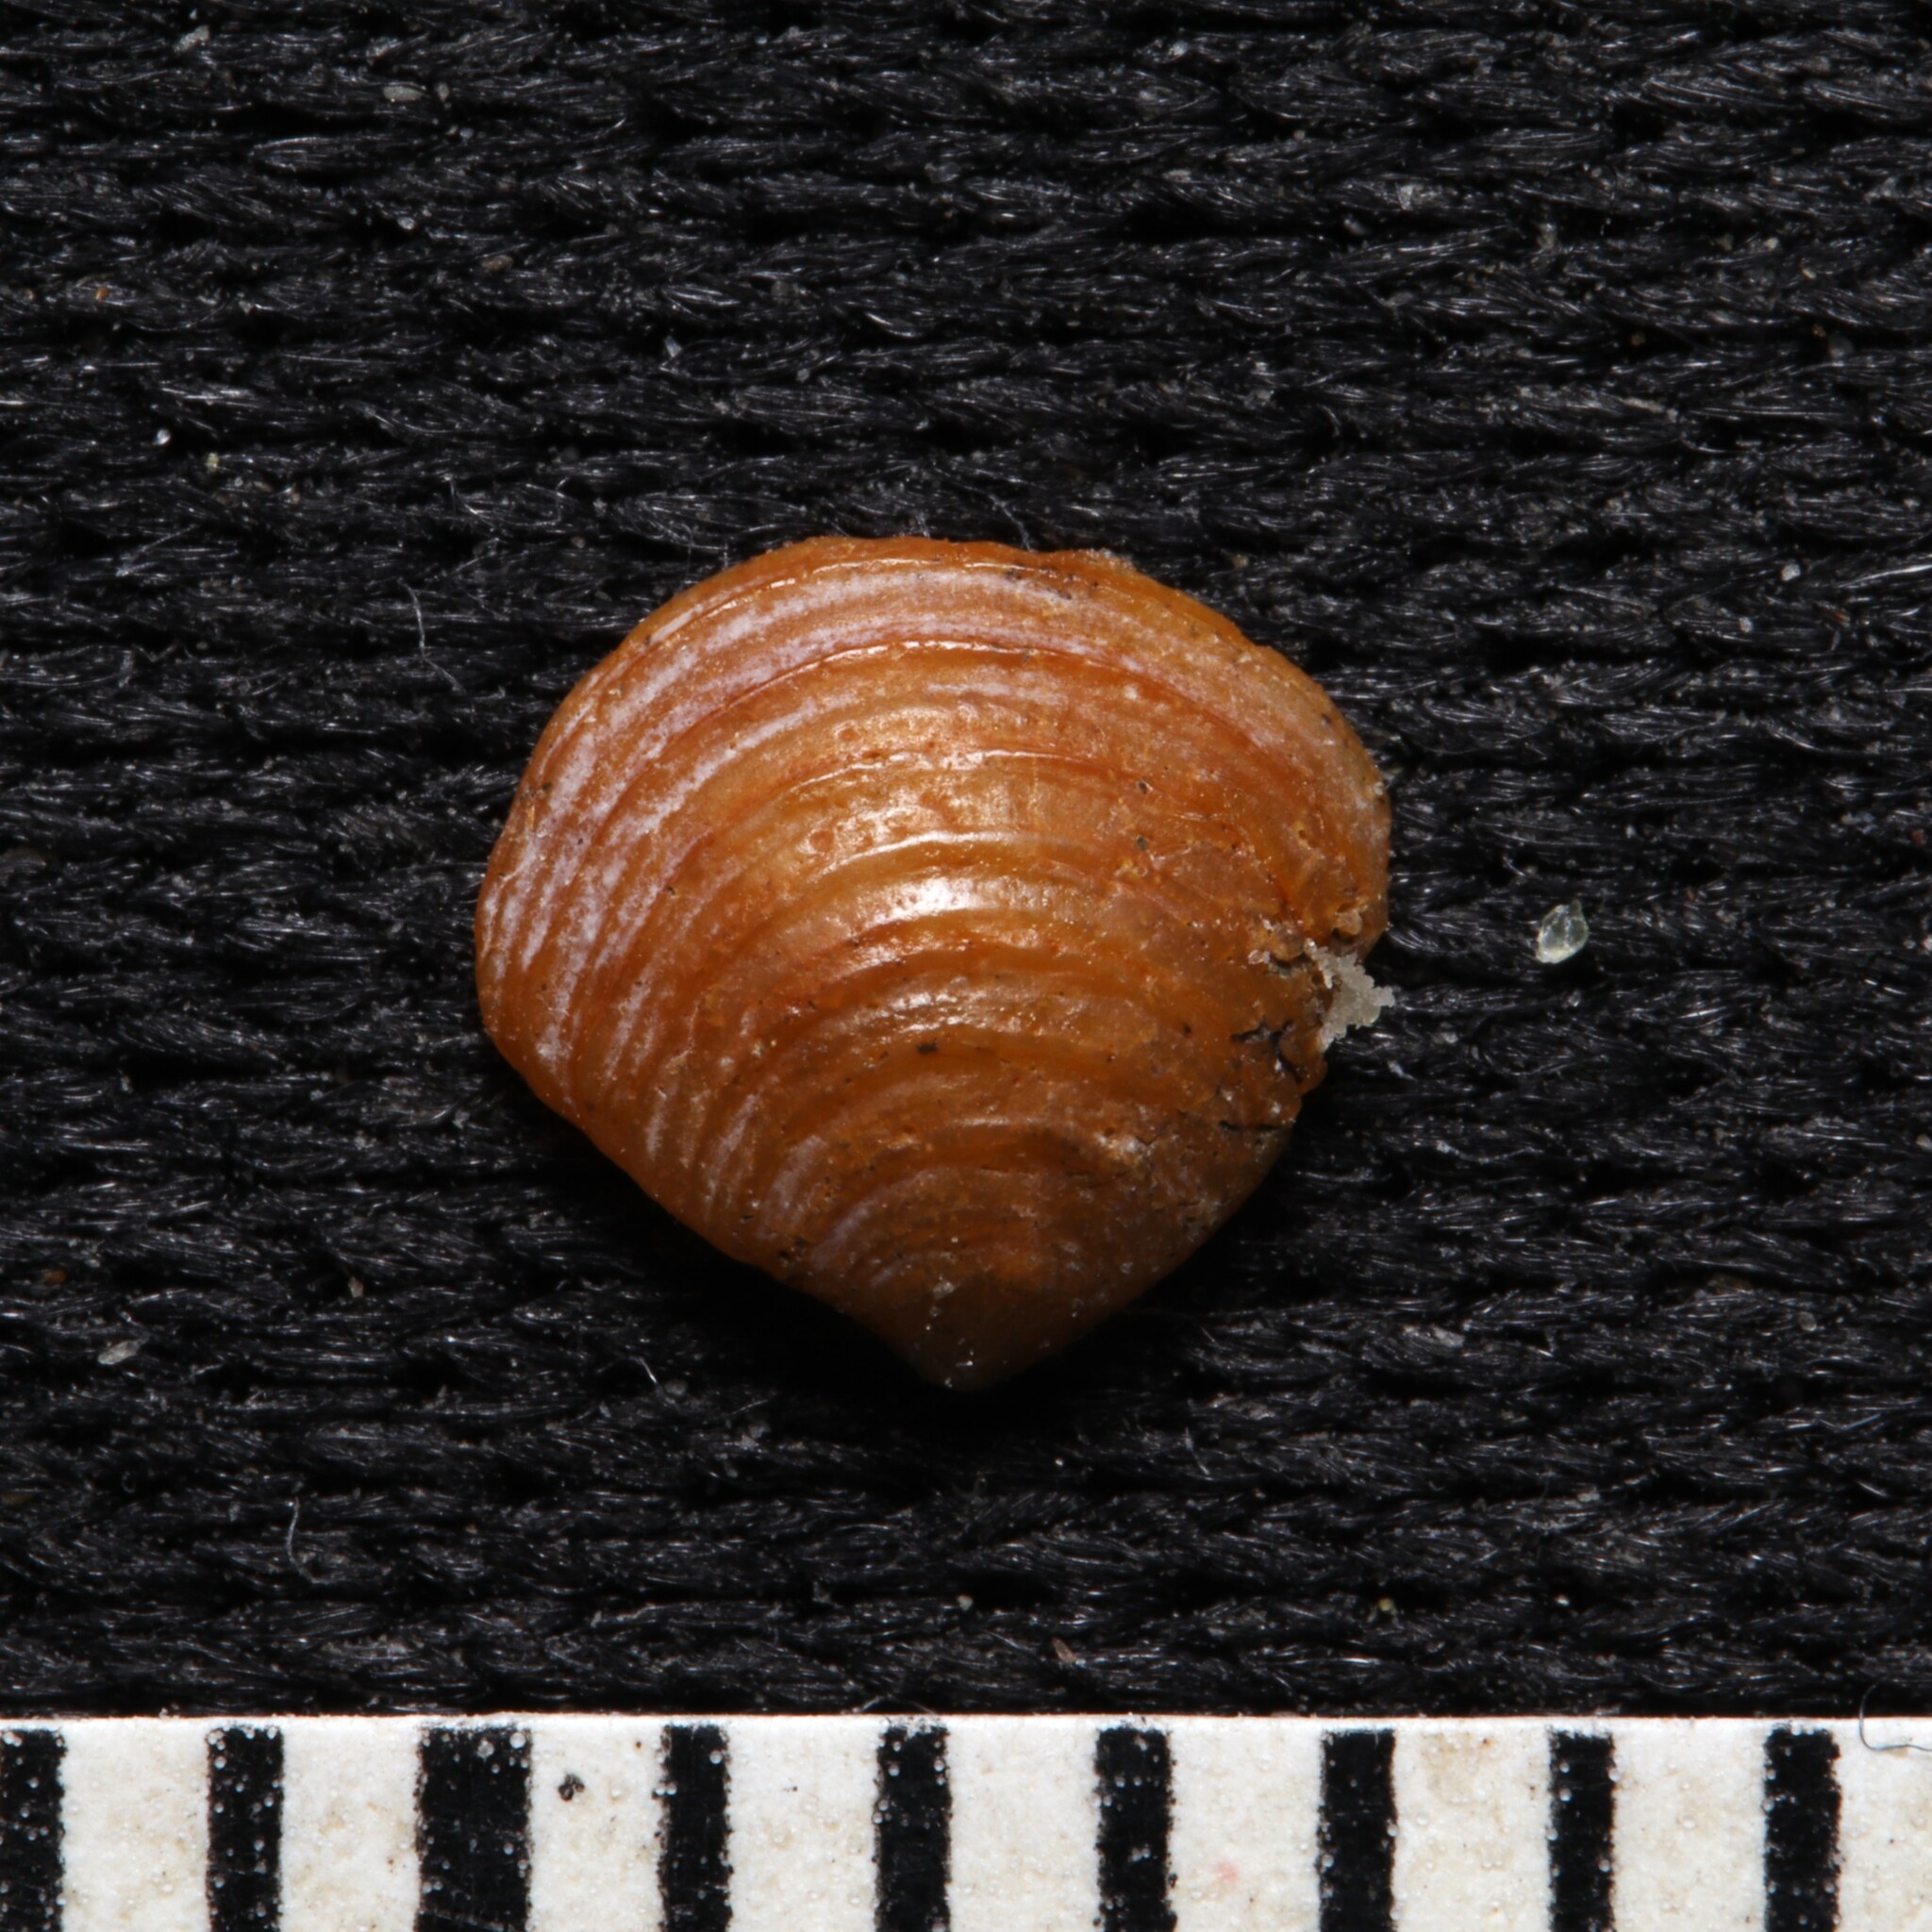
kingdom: Animalia
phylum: Mollusca
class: Bivalvia
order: Carditida
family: Crassatellidae
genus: Crassinella
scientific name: Crassinella lunulata
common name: Lunate crassinella
